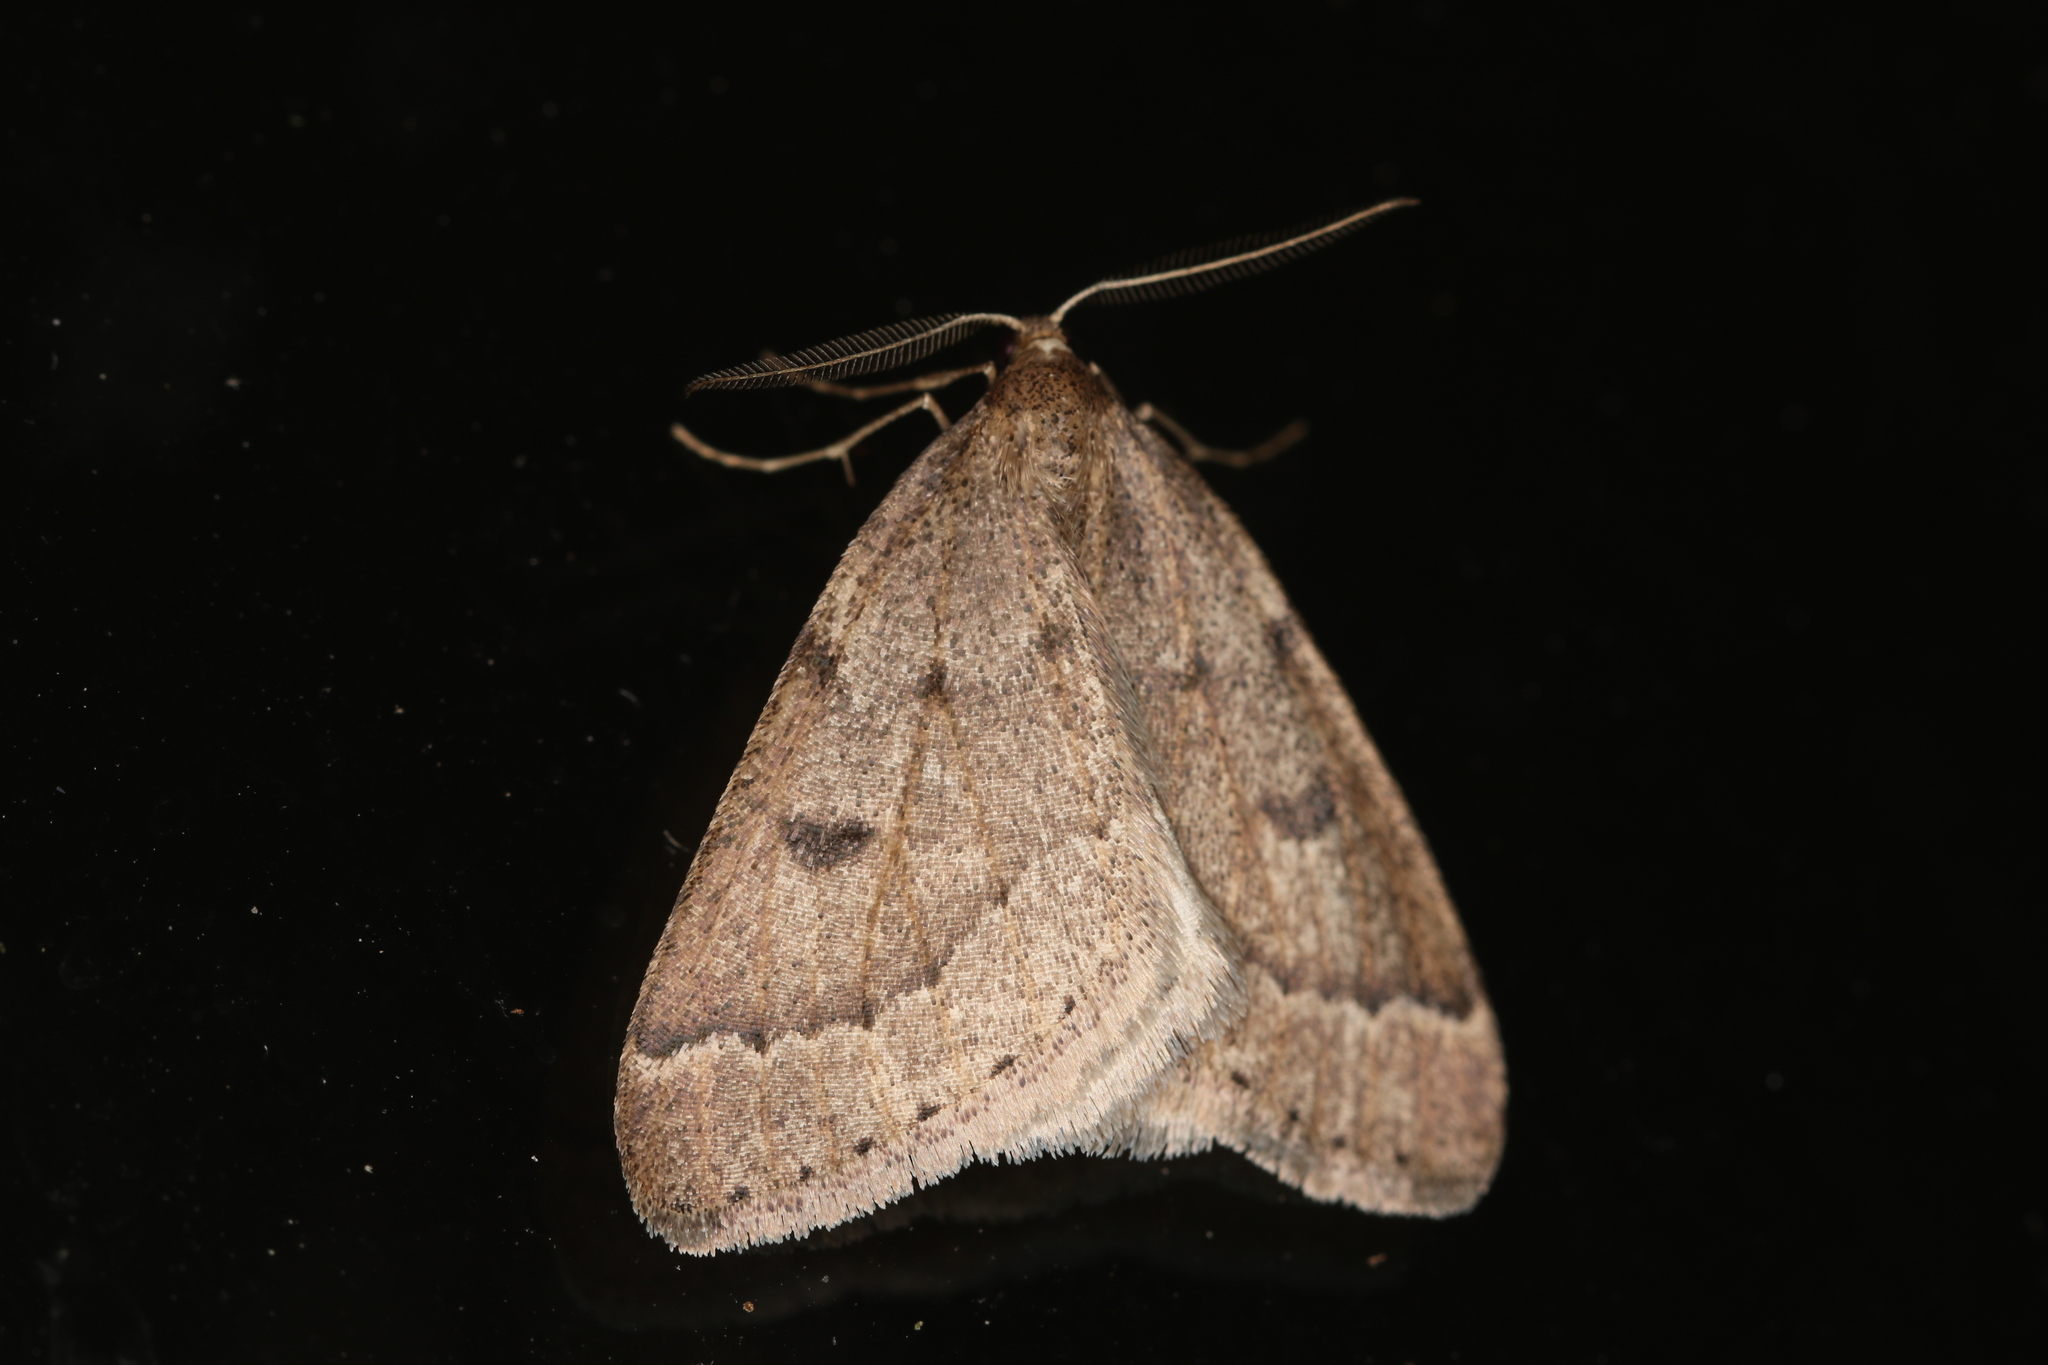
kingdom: Animalia
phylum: Arthropoda
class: Insecta
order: Lepidoptera
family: Geometridae
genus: Theria
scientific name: Theria rupicapraria
